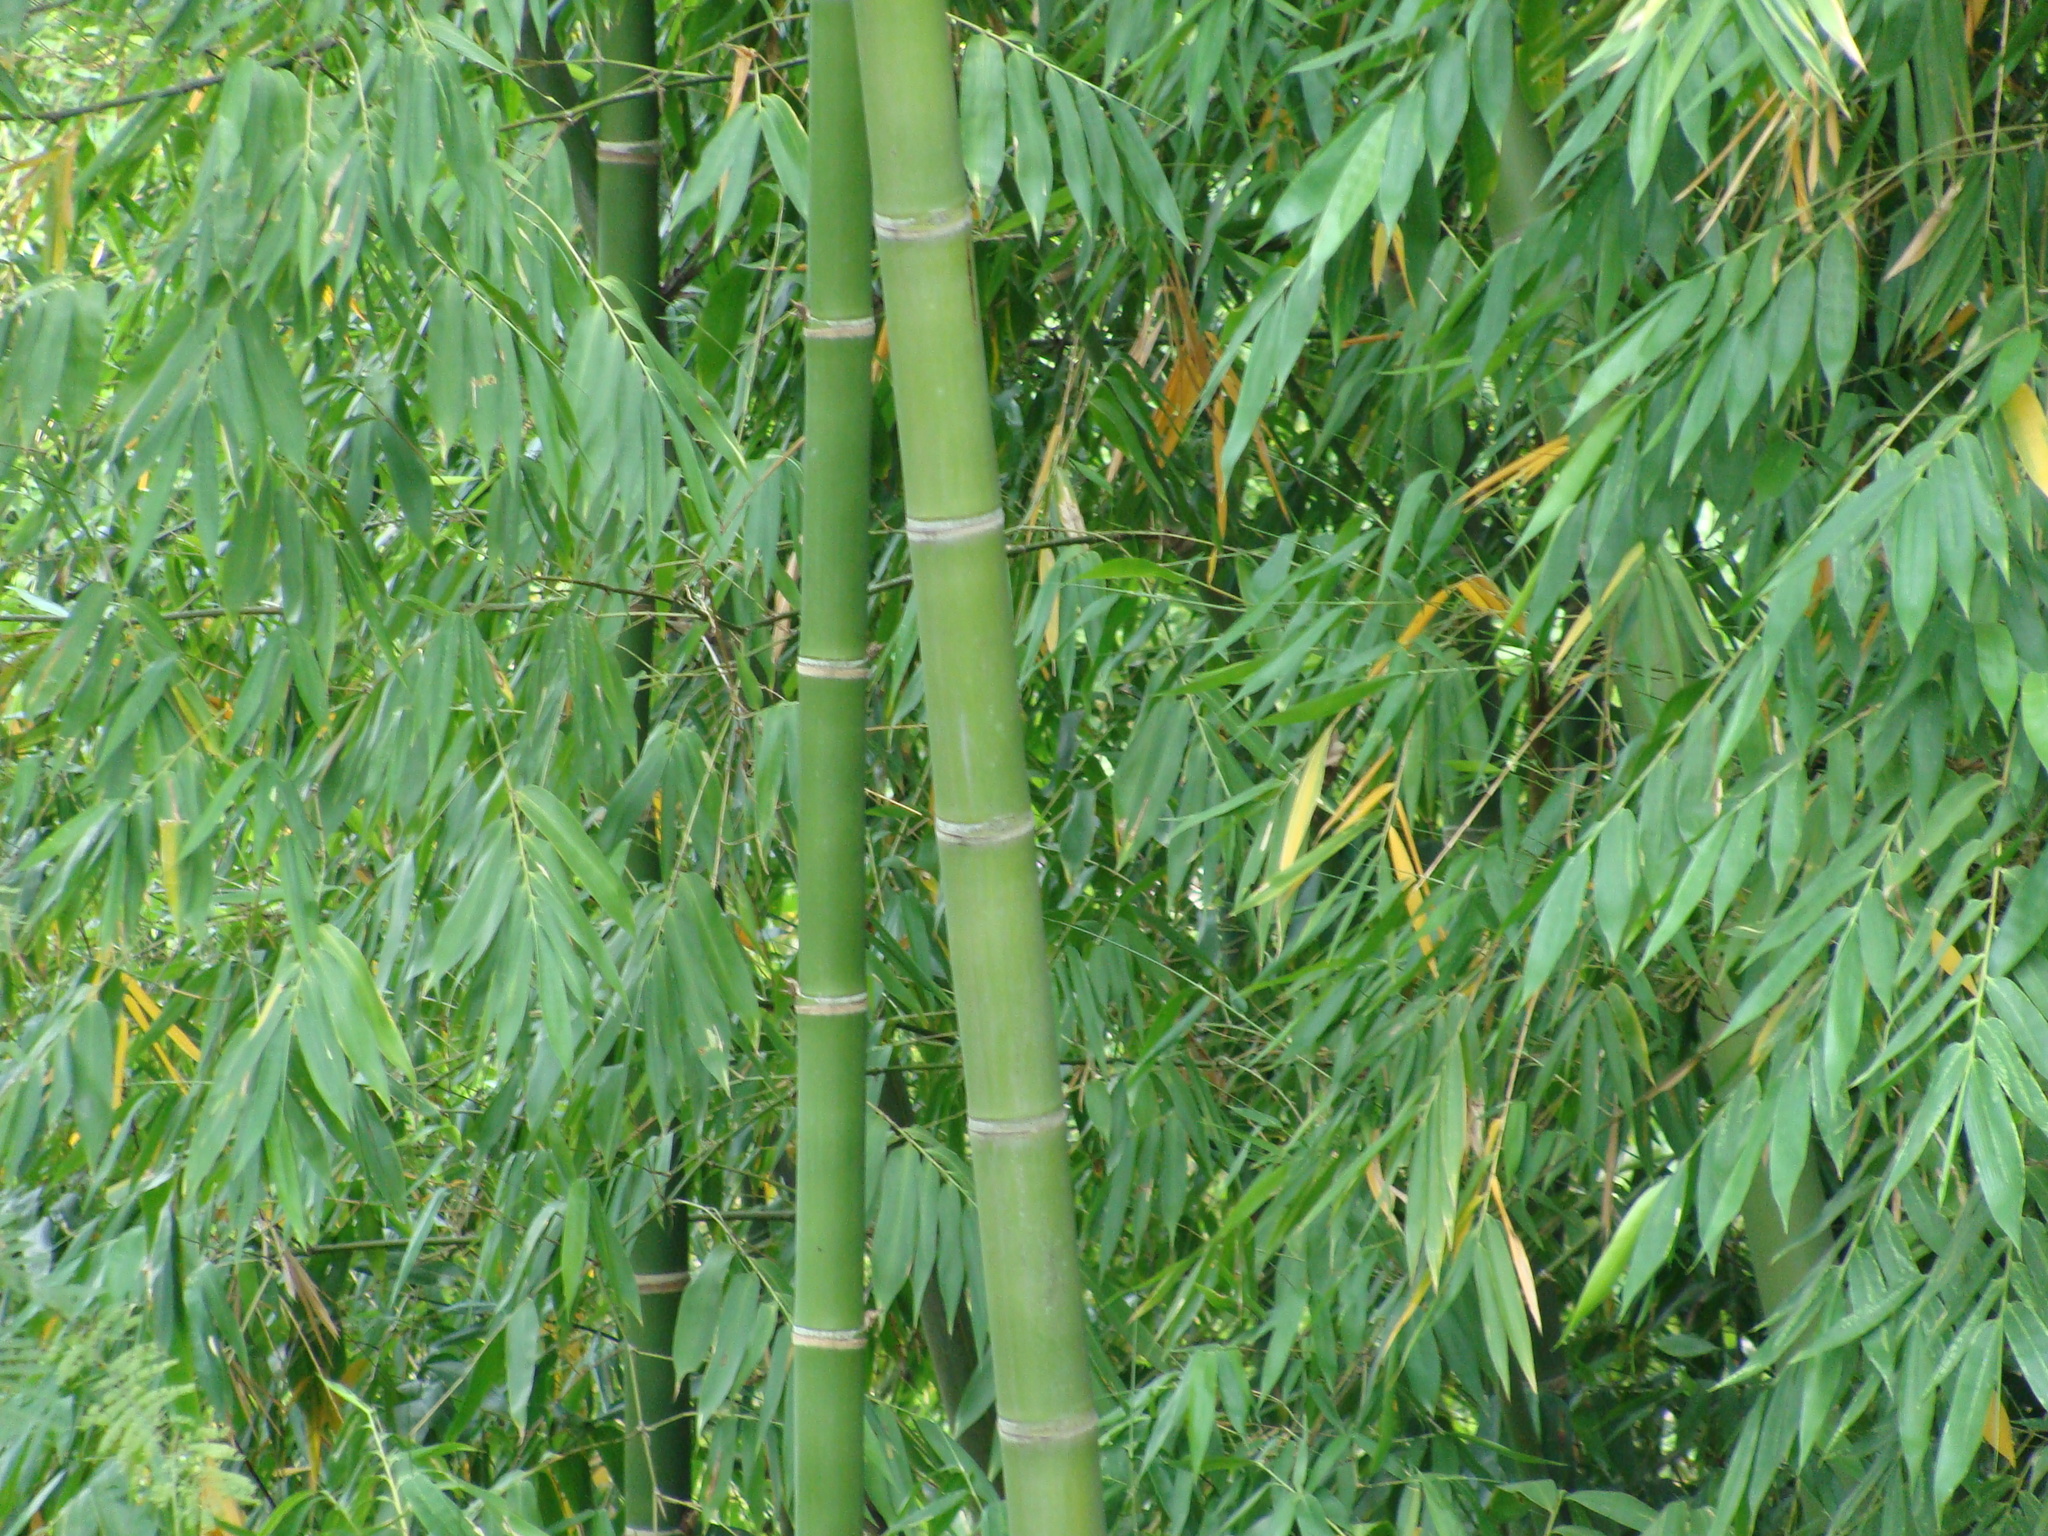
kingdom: Plantae
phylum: Tracheophyta
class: Liliopsida
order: Poales
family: Poaceae
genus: Guadua
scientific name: Guadua angustifolia
